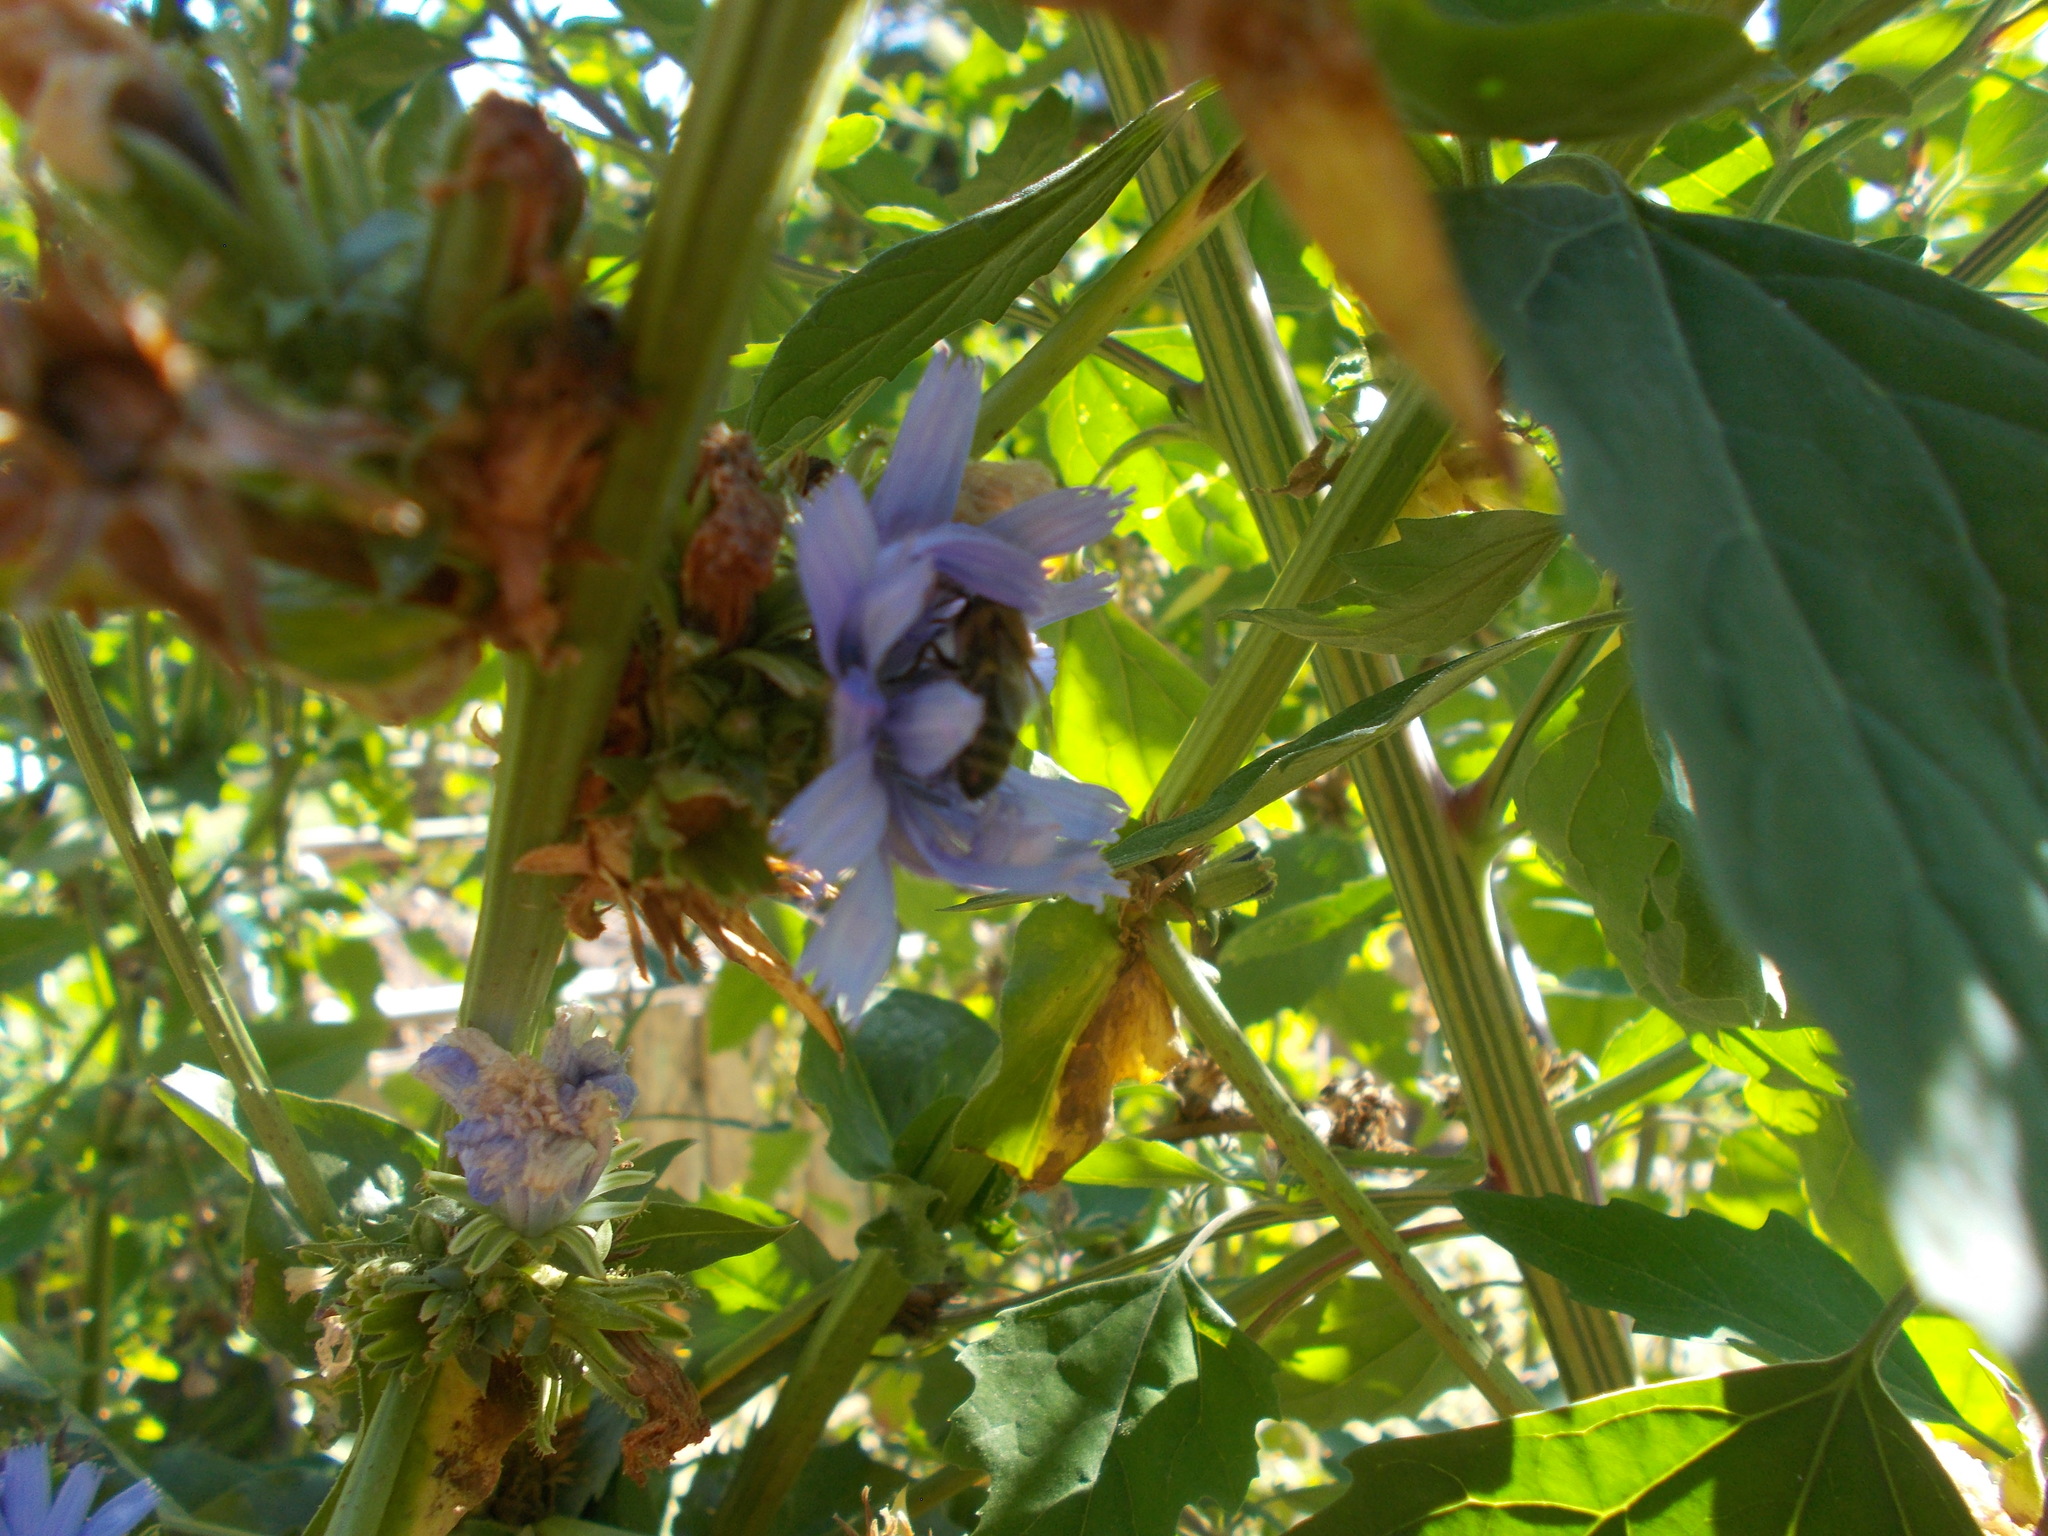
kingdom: Animalia
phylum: Arthropoda
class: Insecta
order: Hymenoptera
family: Apidae
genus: Apis
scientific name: Apis mellifera
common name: Honey bee
